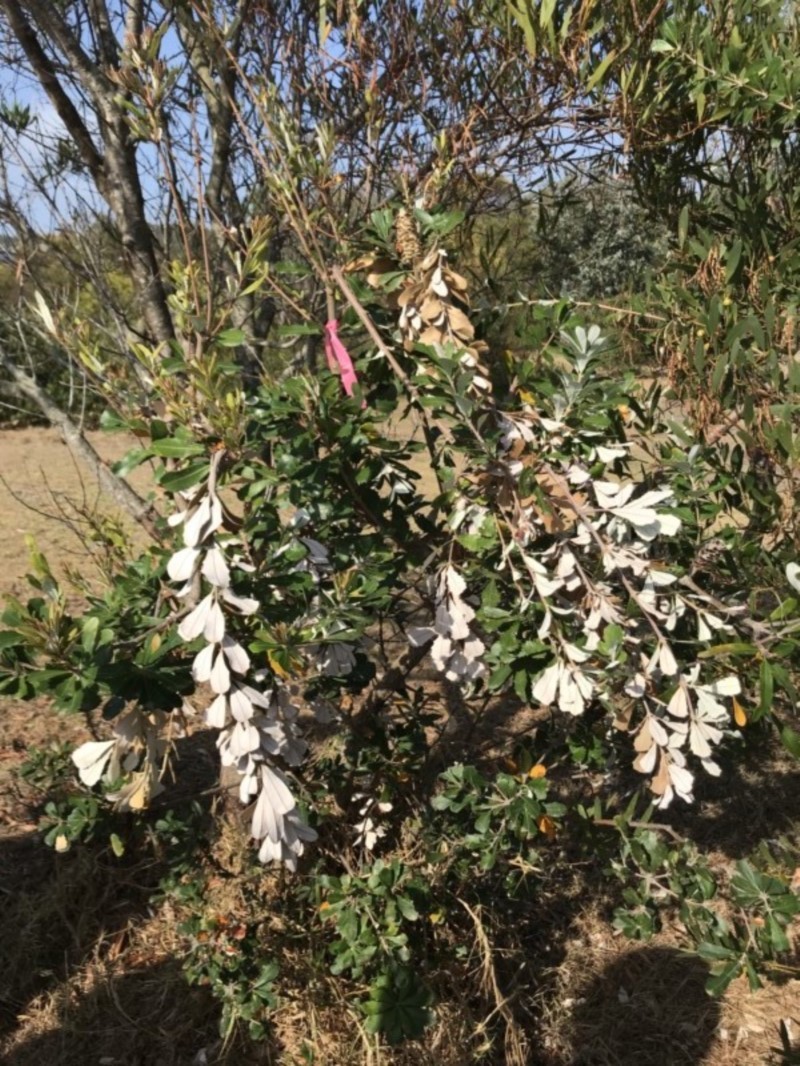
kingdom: Plantae
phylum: Tracheophyta
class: Magnoliopsida
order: Proteales
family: Proteaceae
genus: Banksia
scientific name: Banksia integrifolia
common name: White-honeysuckle
